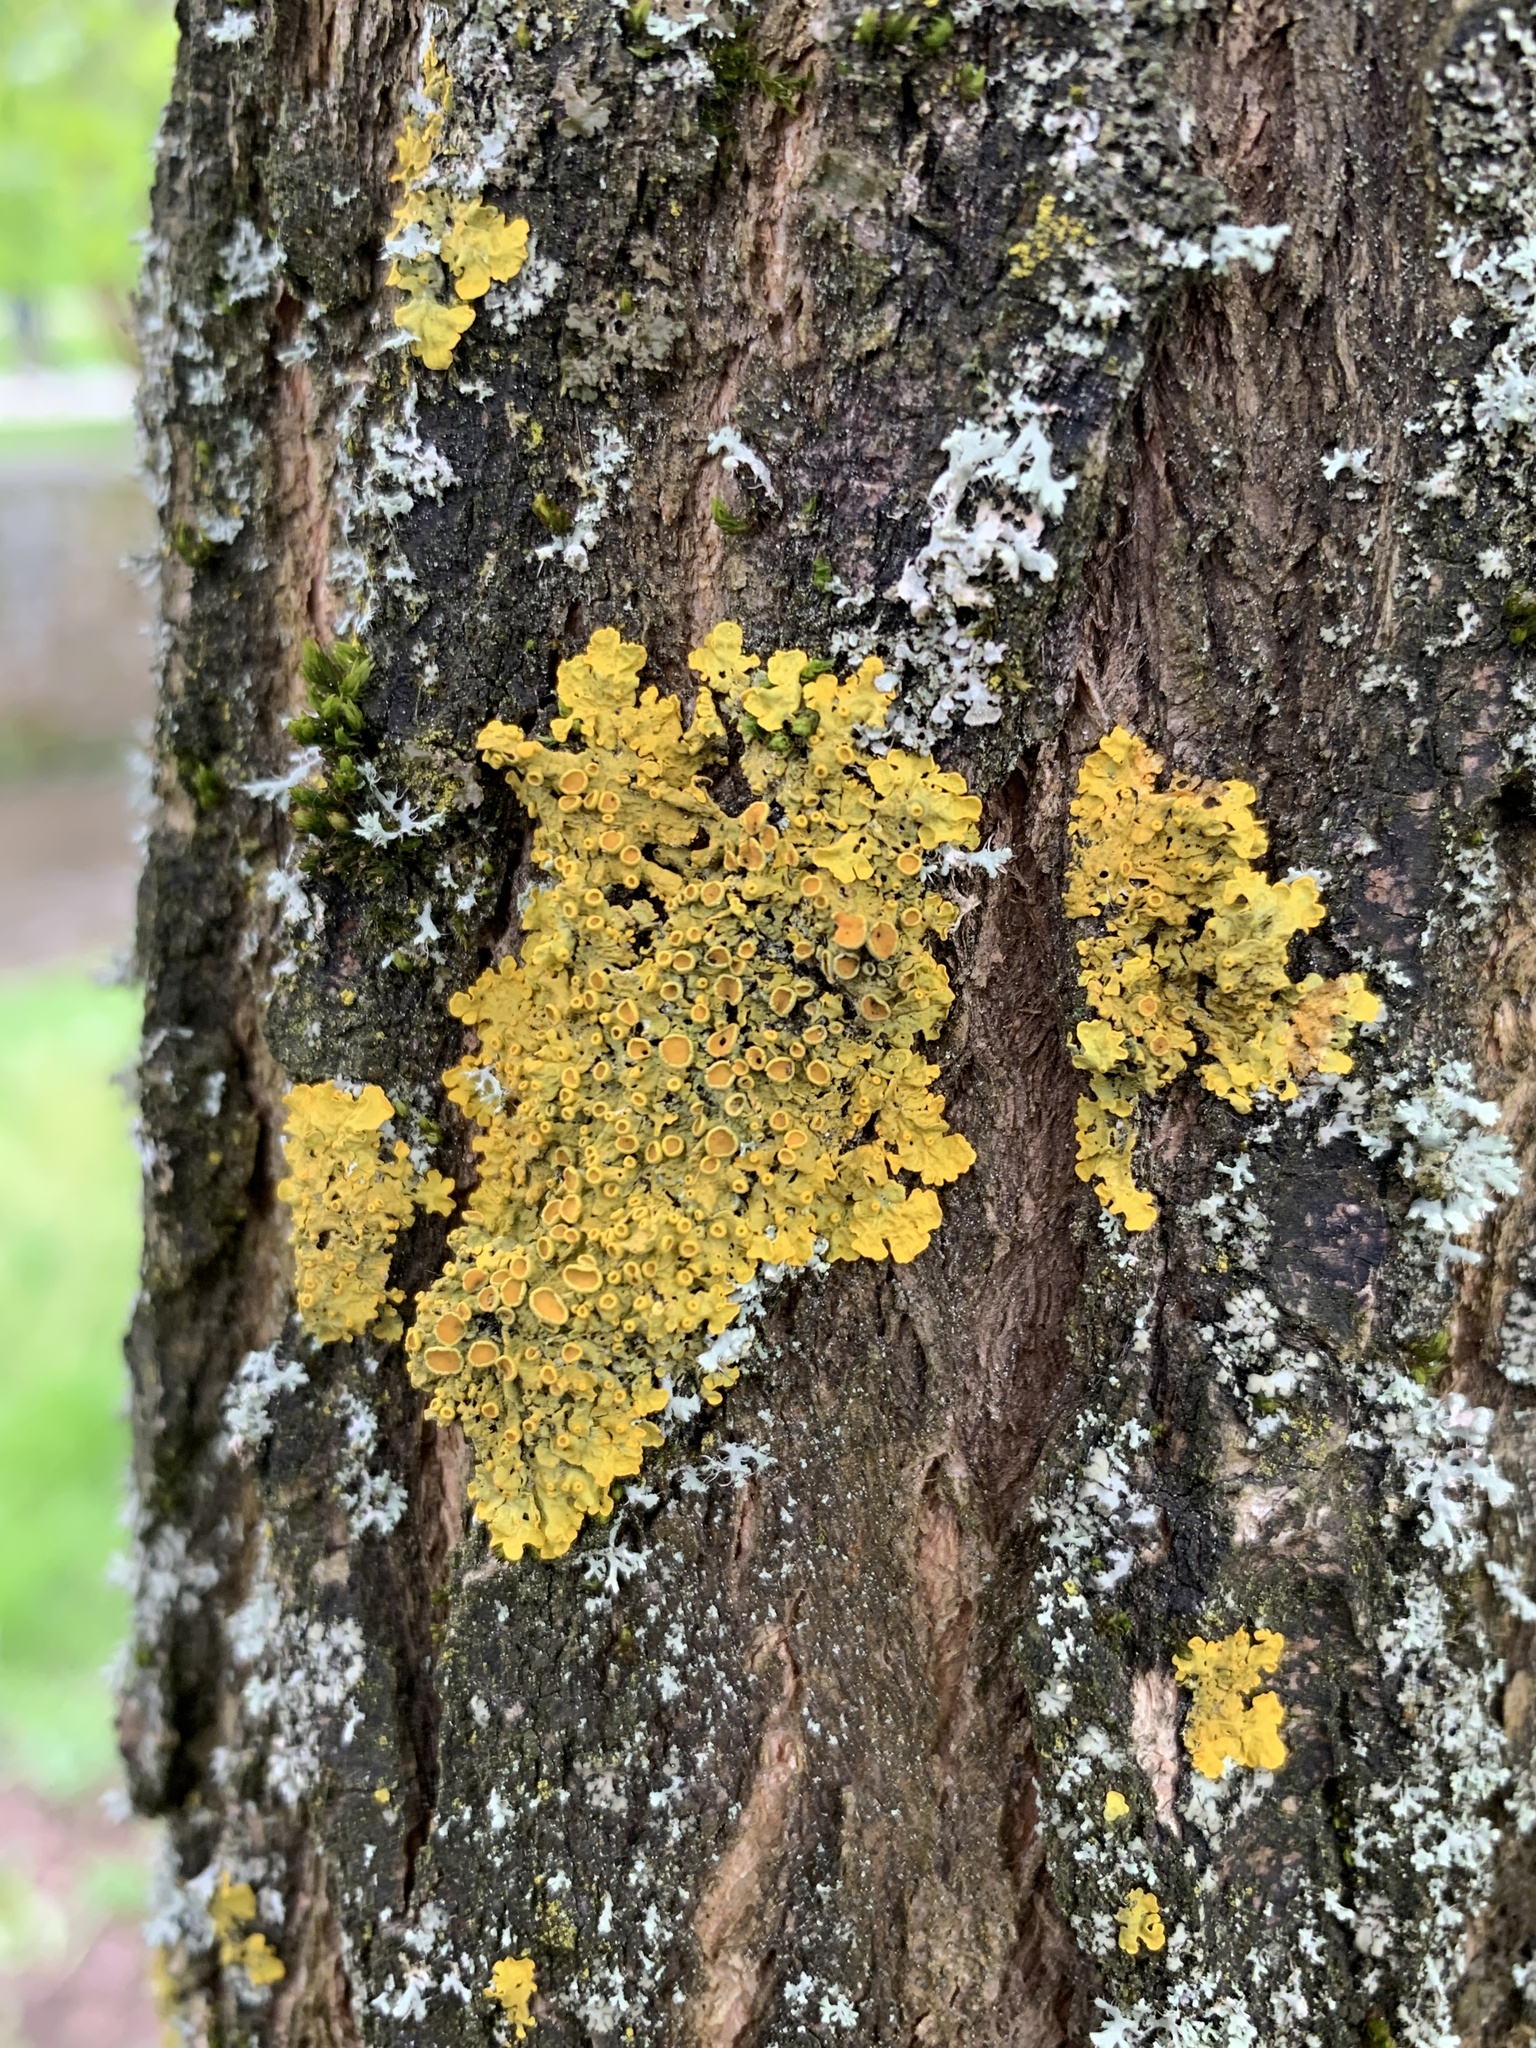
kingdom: Fungi
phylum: Ascomycota
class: Lecanoromycetes
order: Teloschistales
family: Teloschistaceae
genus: Xanthoria
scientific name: Xanthoria parietina
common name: Common orange lichen
